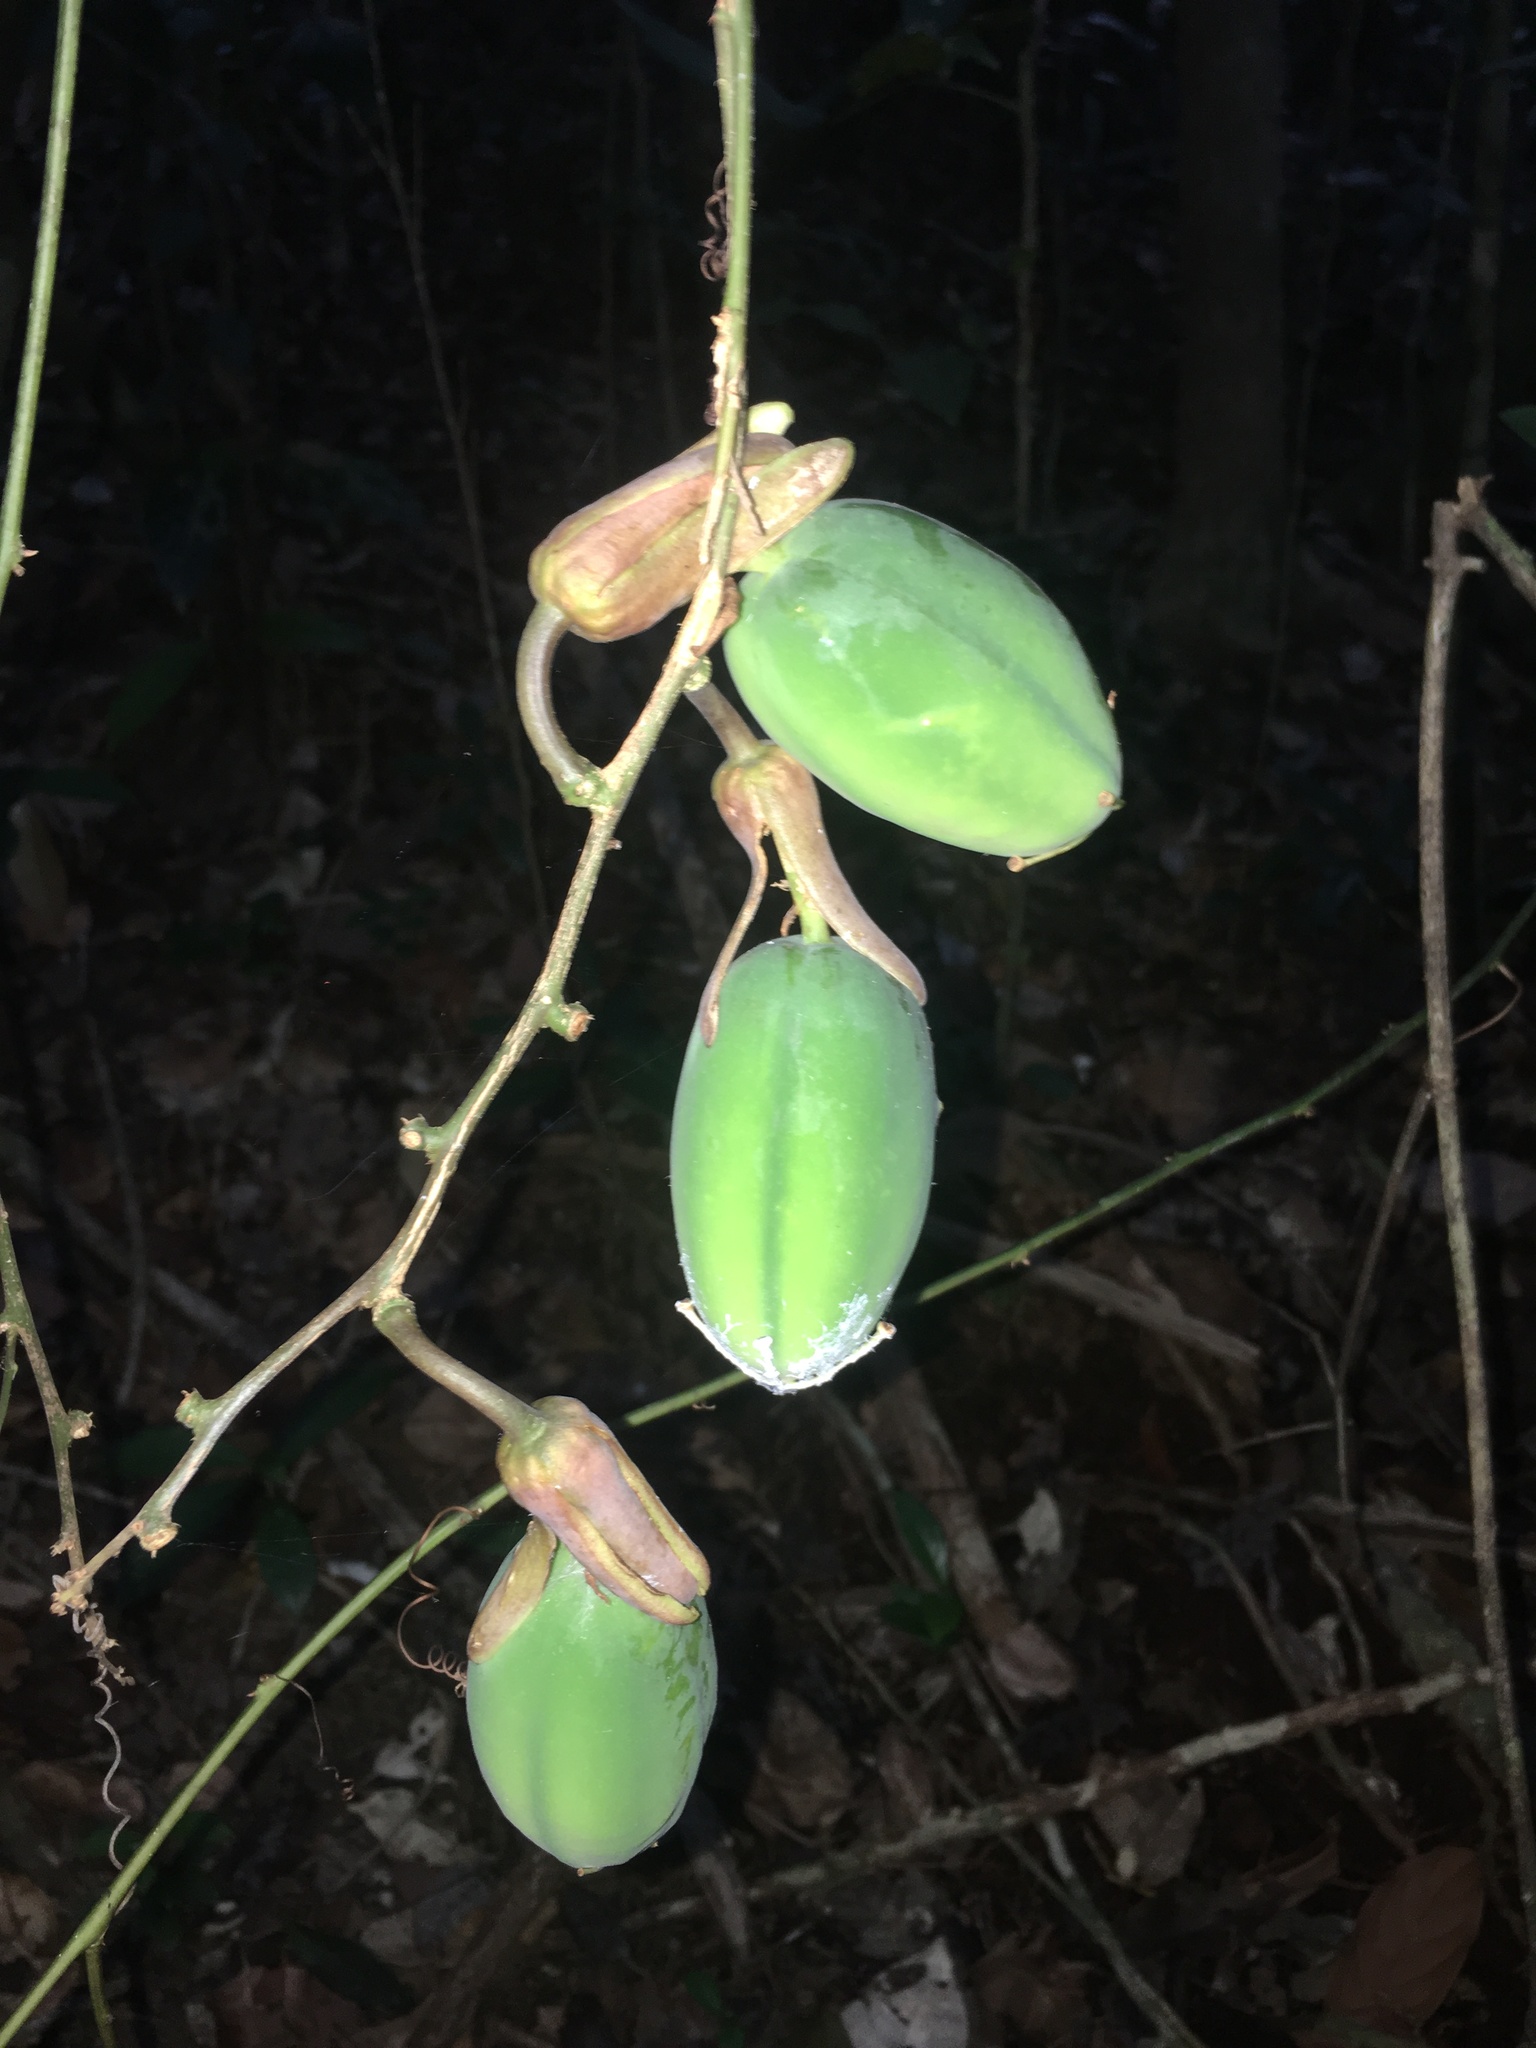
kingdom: Plantae
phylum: Tracheophyta
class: Magnoliopsida
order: Malpighiales
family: Passifloraceae
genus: Passiflora
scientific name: Passiflora contracta
